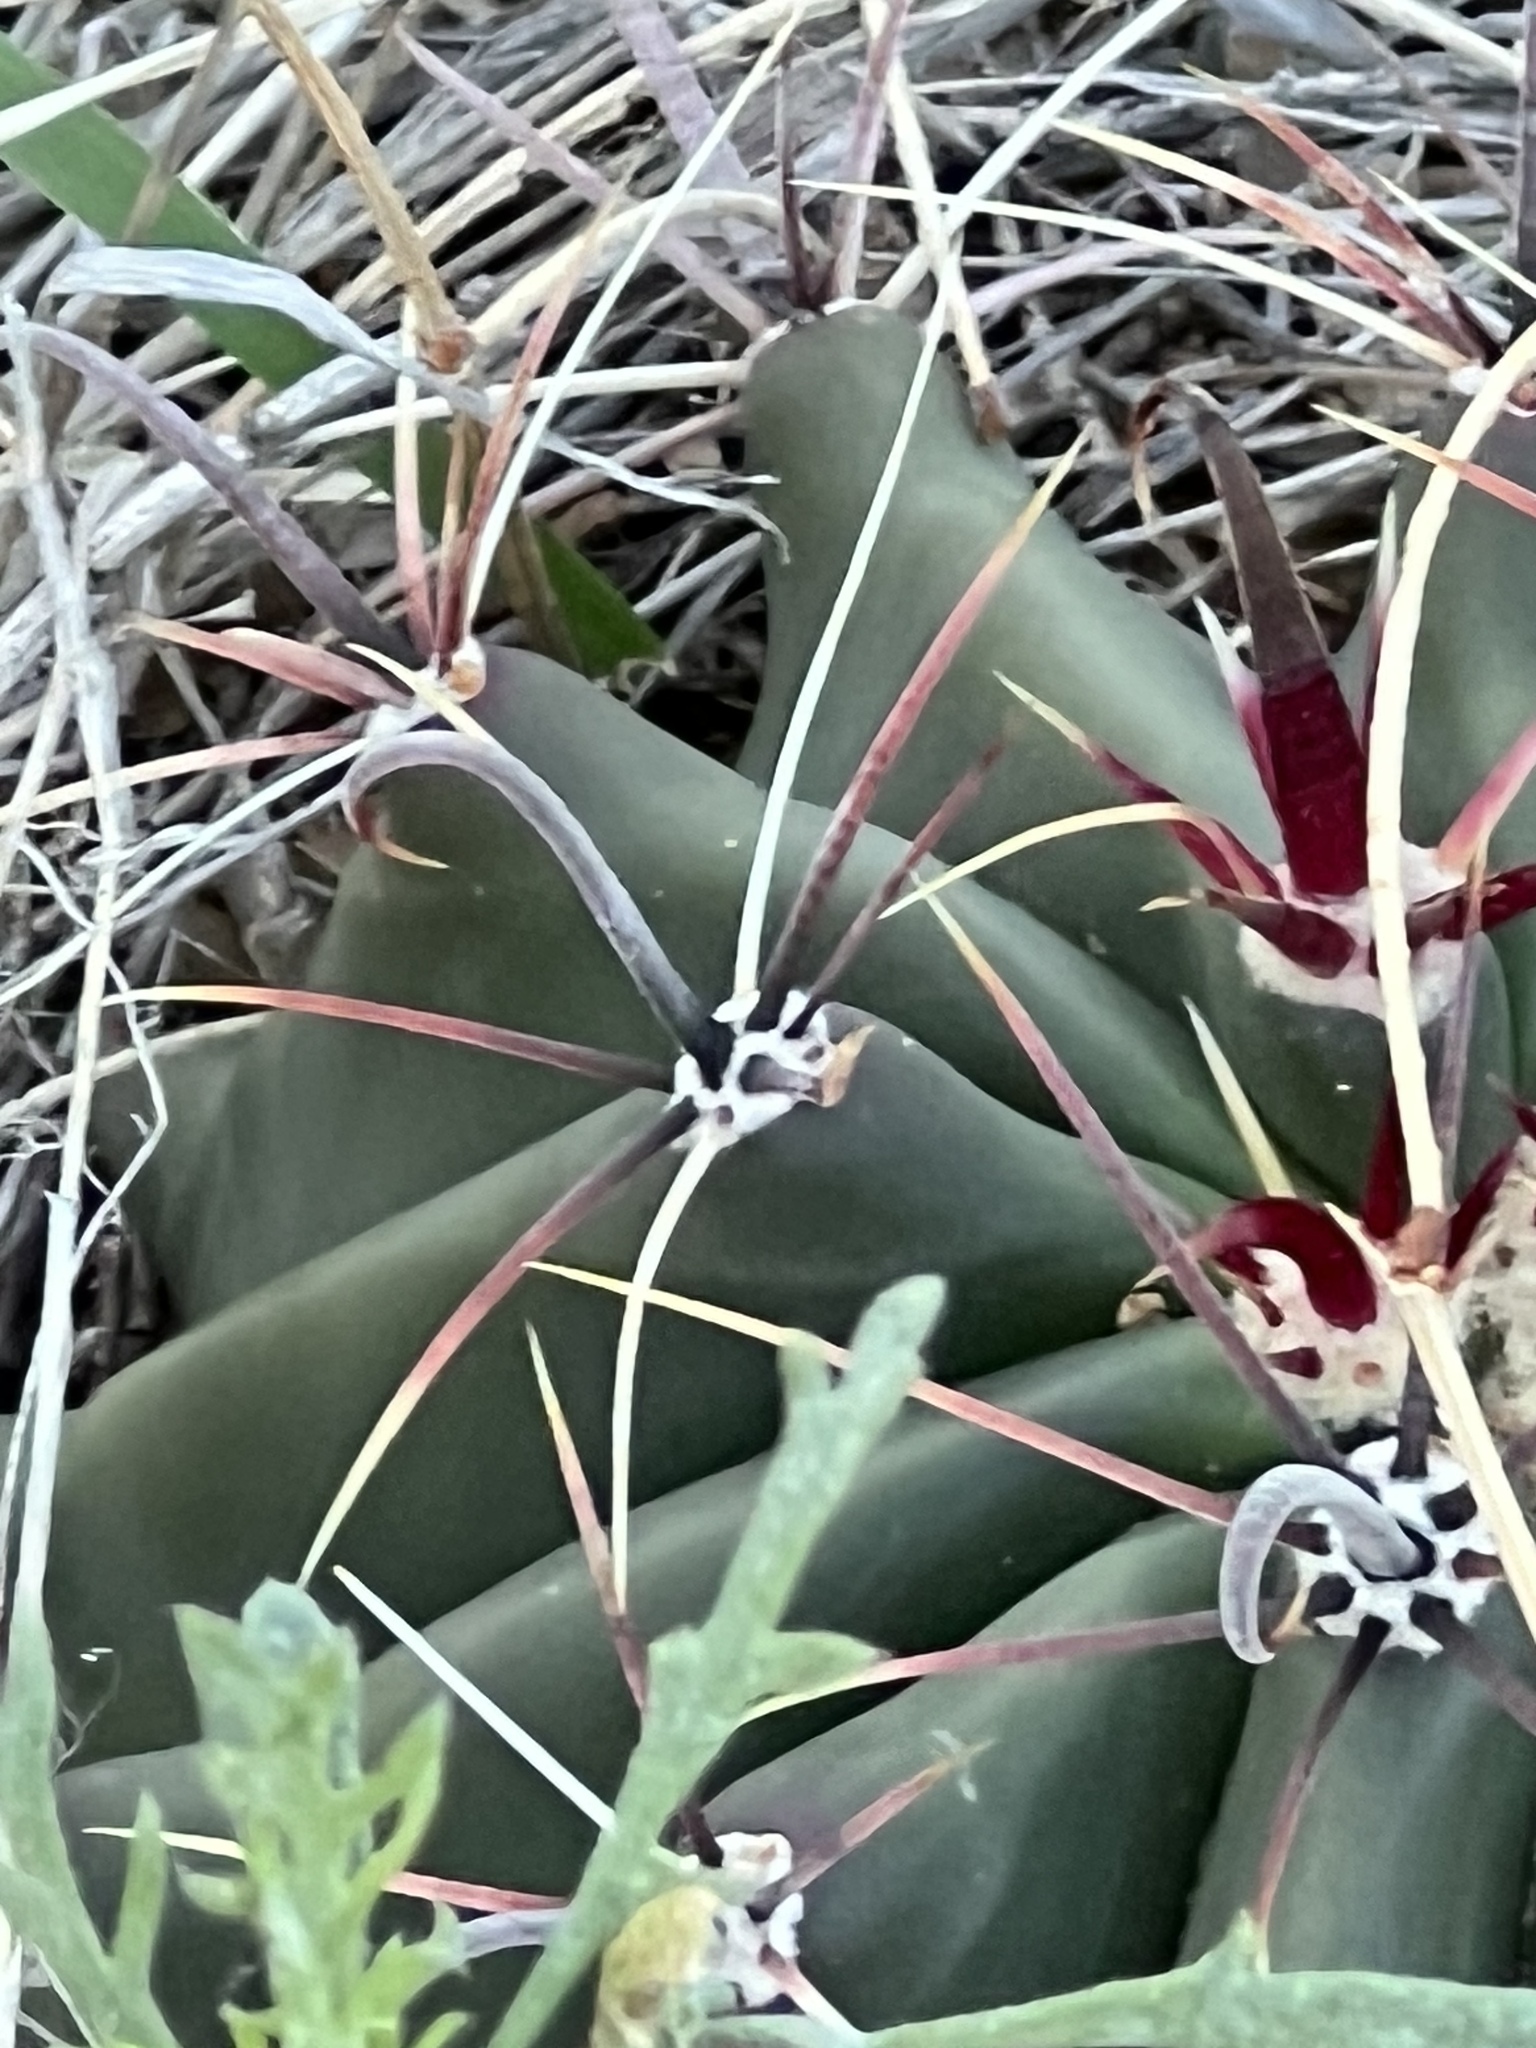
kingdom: Plantae
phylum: Tracheophyta
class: Magnoliopsida
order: Caryophyllales
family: Cactaceae
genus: Ferocactus
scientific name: Ferocactus wislizeni
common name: Candy barrel cactus
